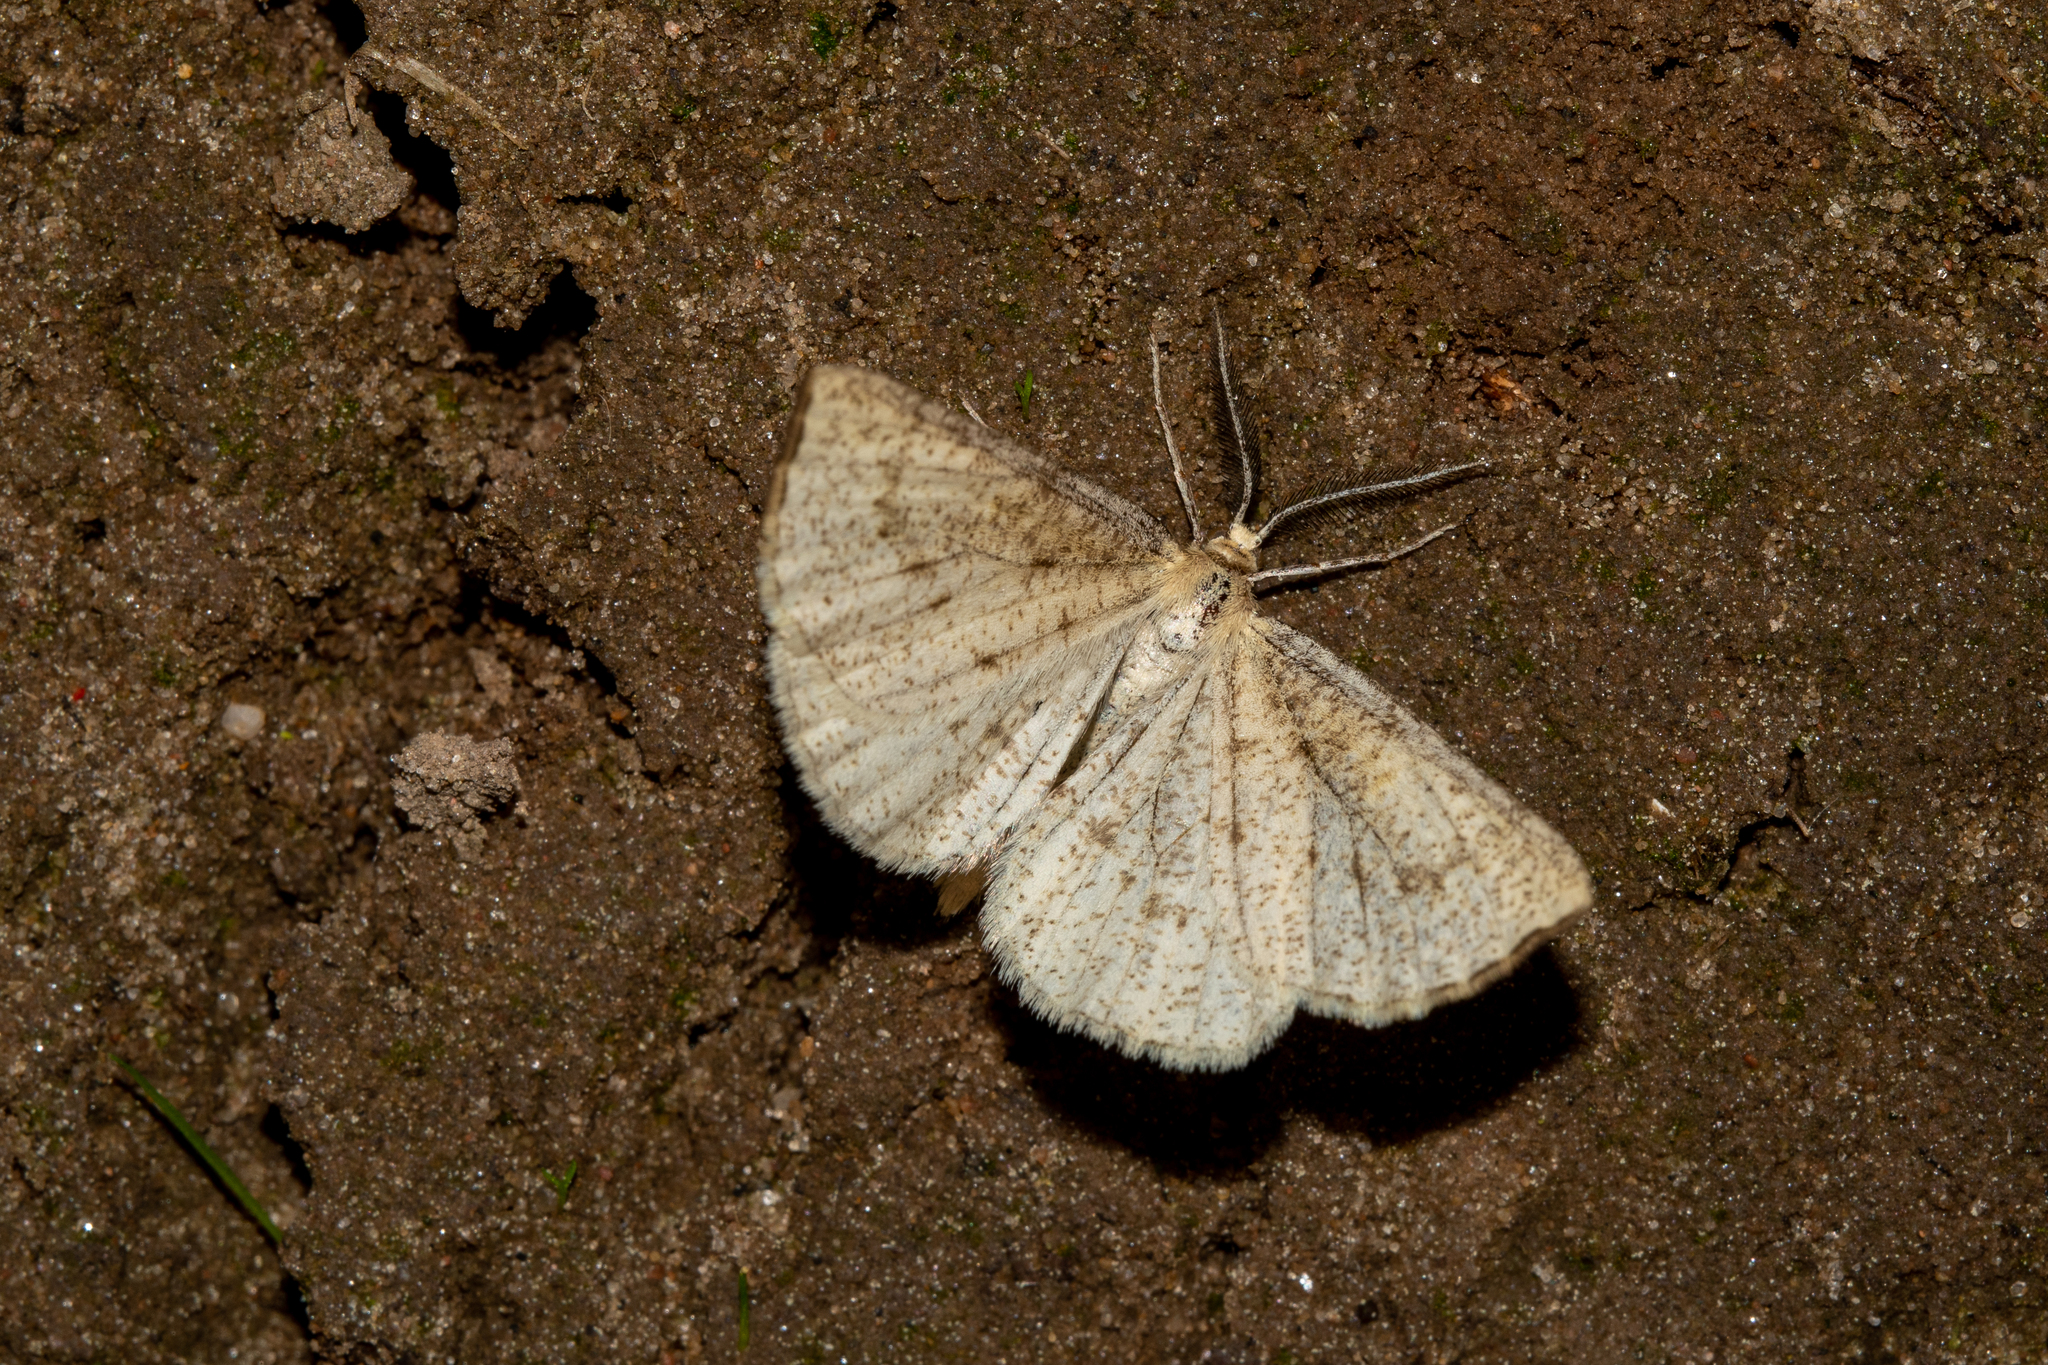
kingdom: Animalia
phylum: Arthropoda
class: Insecta
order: Lepidoptera
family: Geometridae
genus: Hypoxystis
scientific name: Hypoxystis pluviaria
